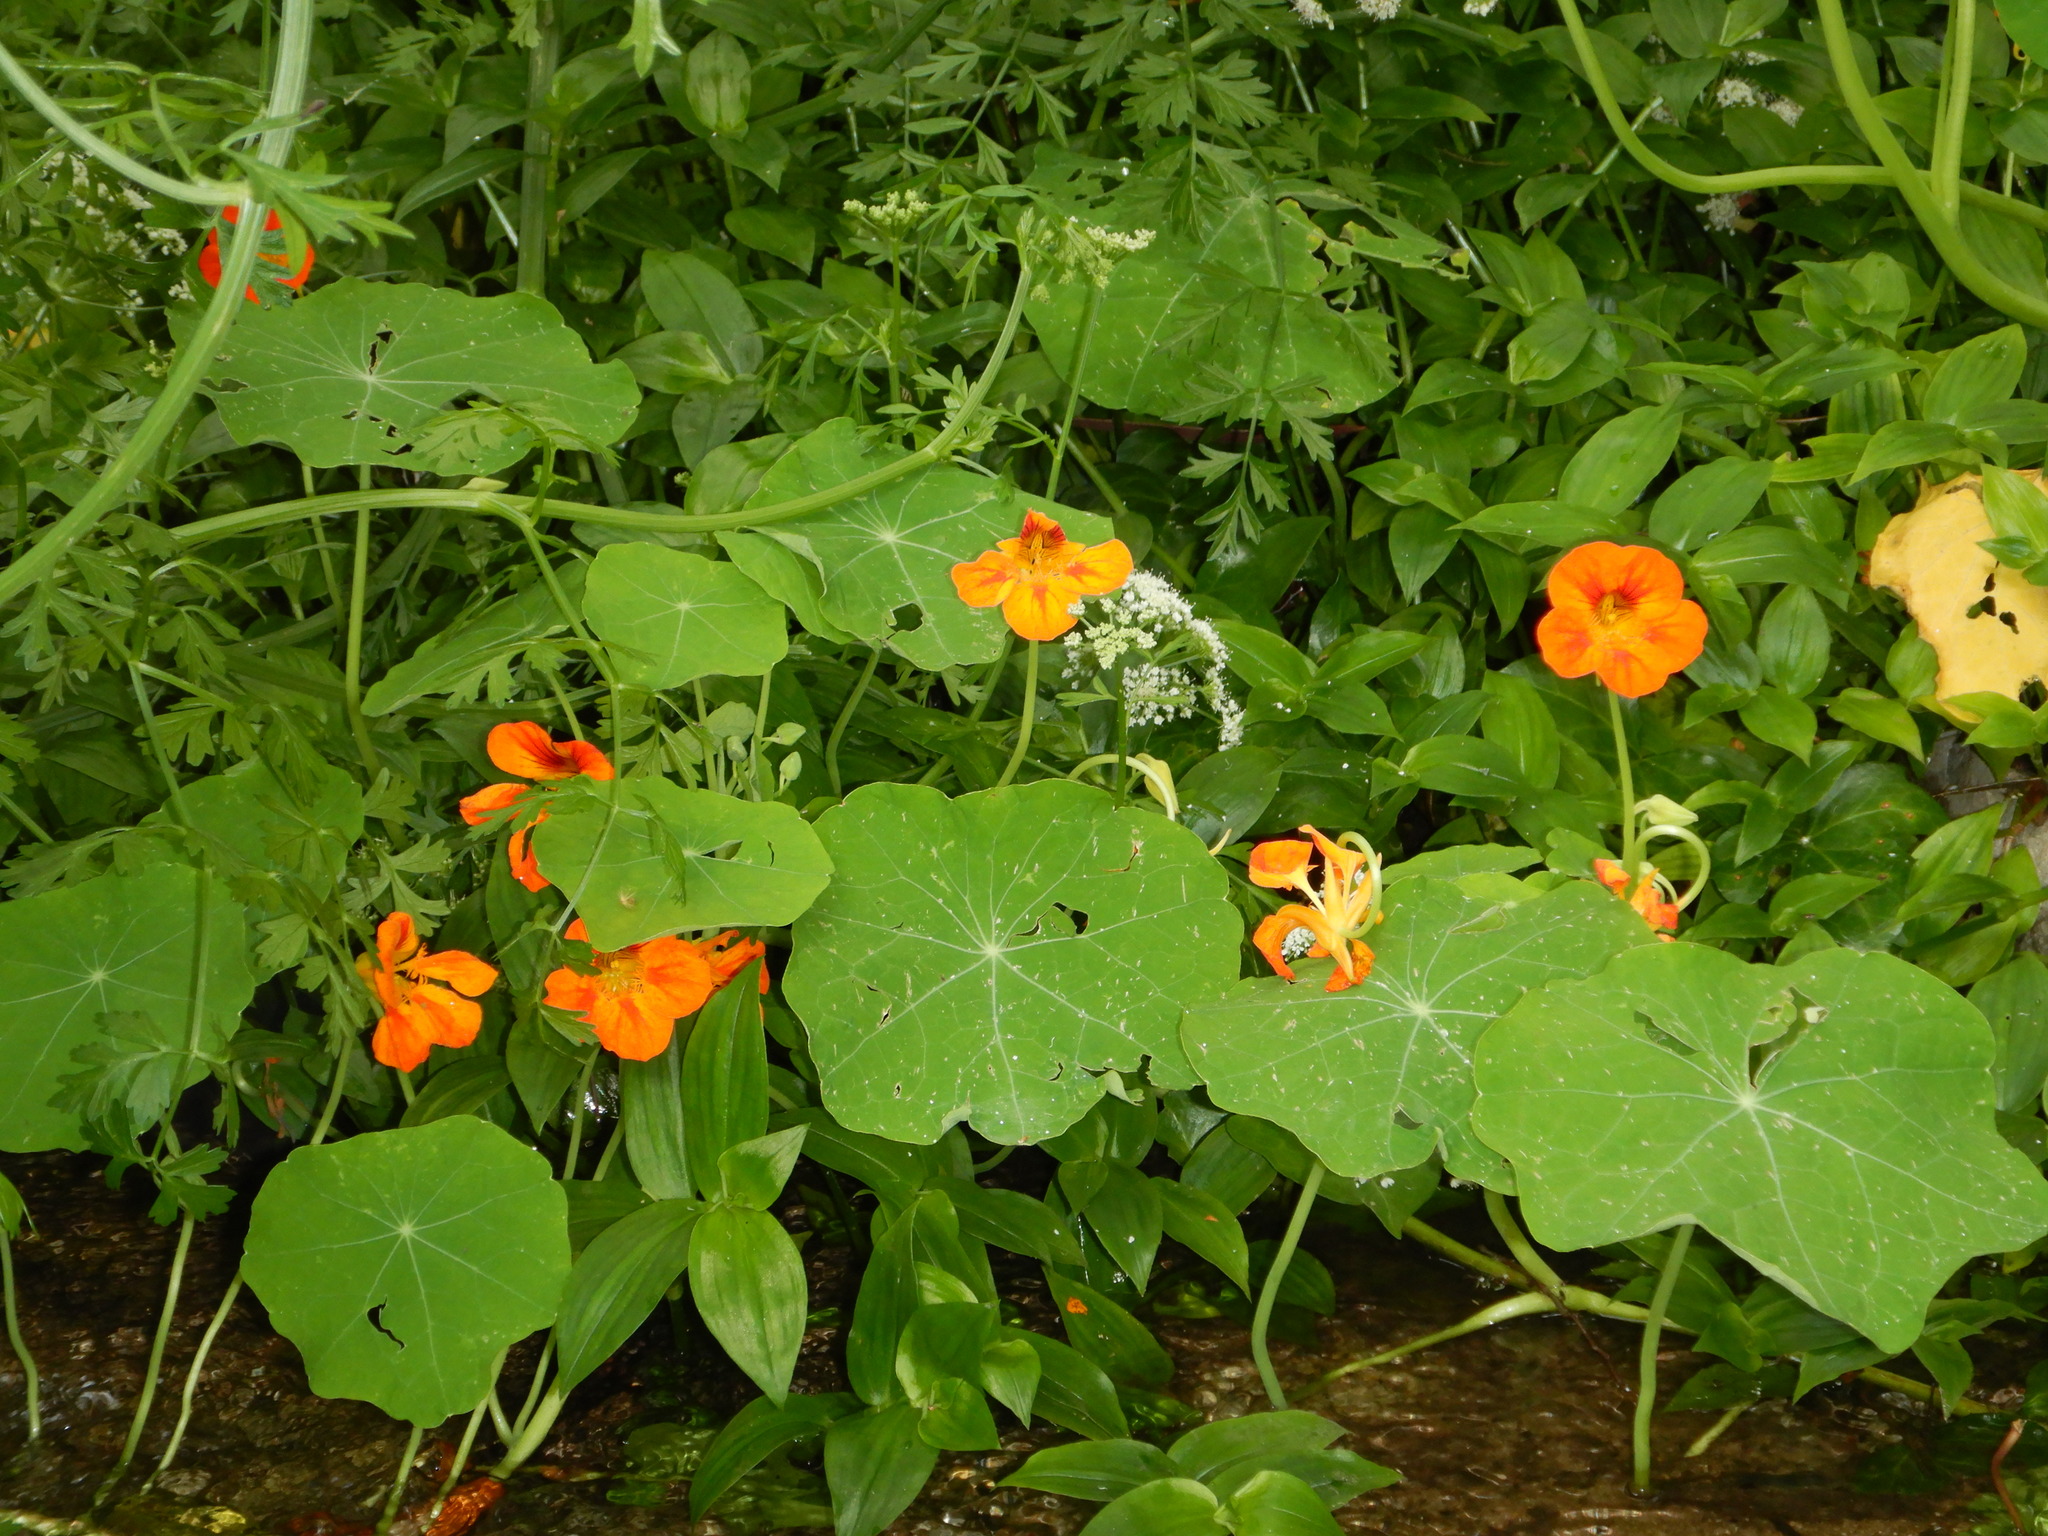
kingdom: Plantae
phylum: Tracheophyta
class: Magnoliopsida
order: Brassicales
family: Tropaeolaceae
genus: Tropaeolum
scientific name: Tropaeolum majus
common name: Nasturtium
